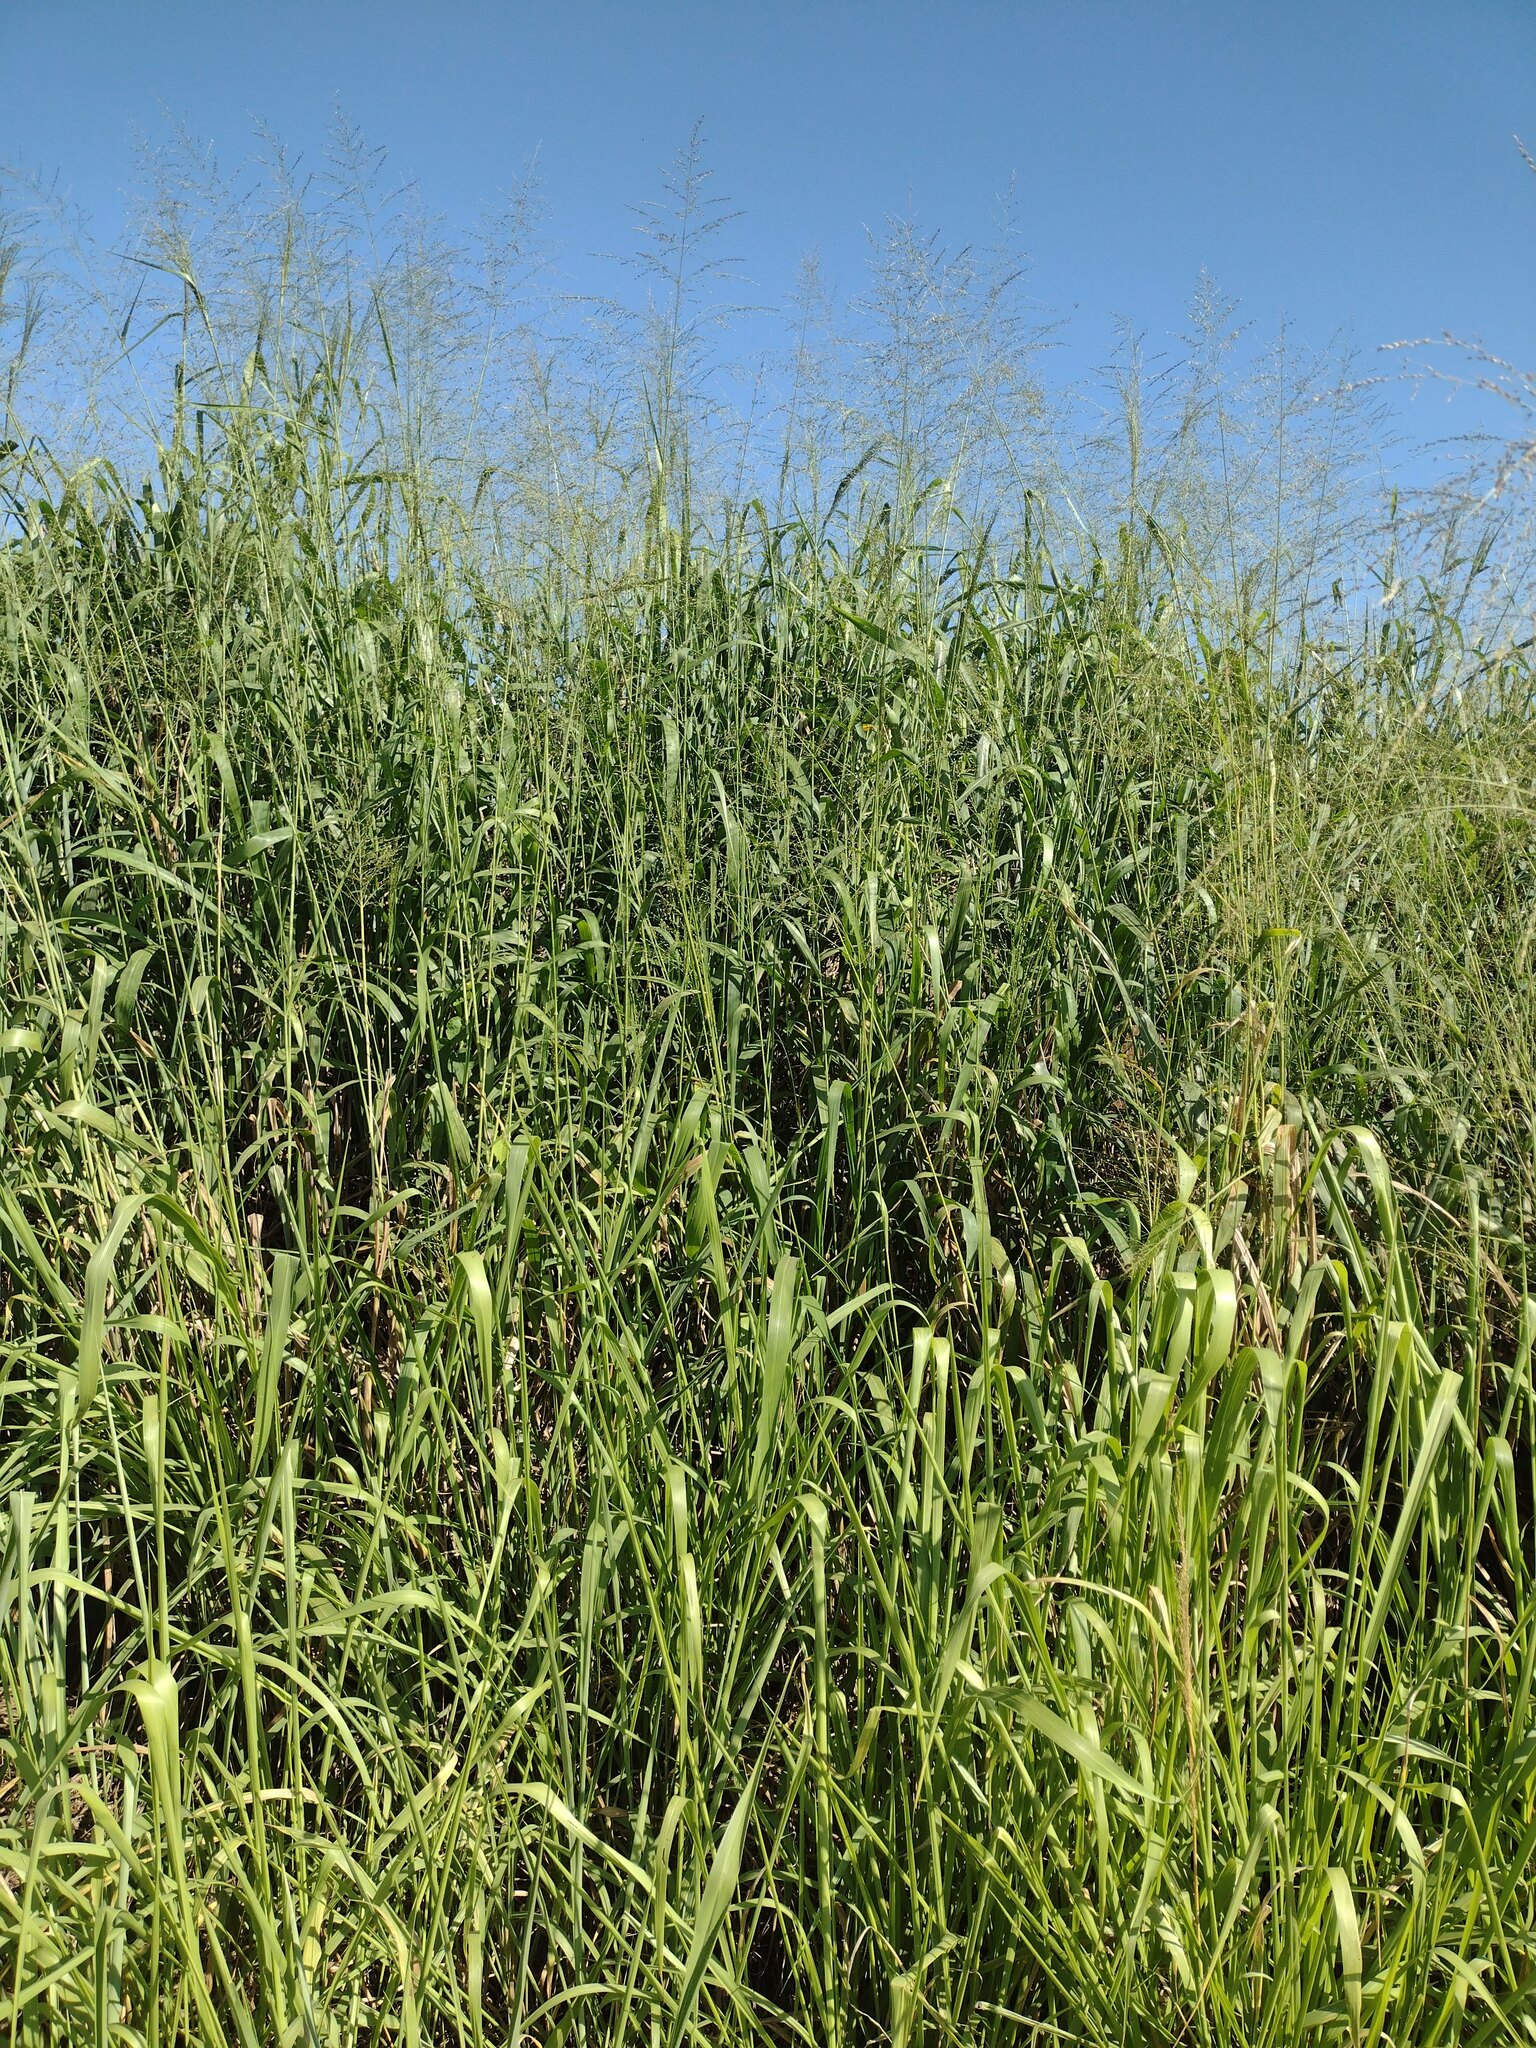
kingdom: Plantae
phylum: Tracheophyta
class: Liliopsida
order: Poales
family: Poaceae
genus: Megathyrsus
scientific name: Megathyrsus maximus
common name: Guineagrass
